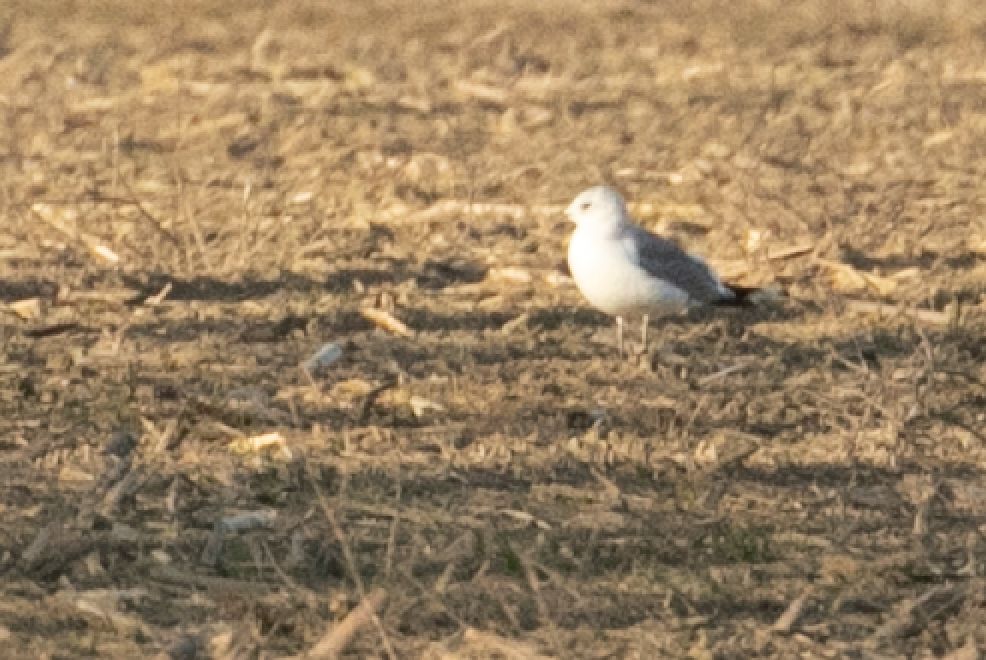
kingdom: Animalia
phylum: Chordata
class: Aves
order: Charadriiformes
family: Laridae
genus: Larus
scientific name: Larus canus
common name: Mew gull
